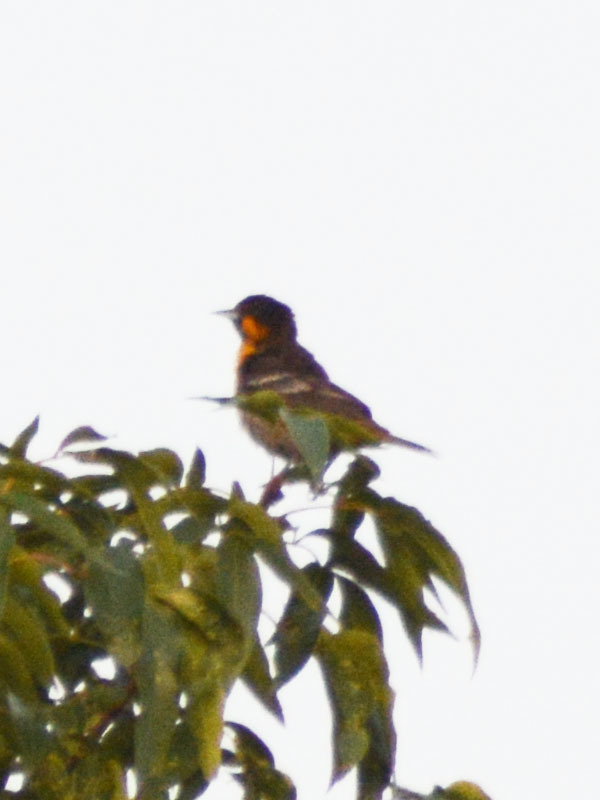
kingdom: Animalia
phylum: Chordata
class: Aves
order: Passeriformes
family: Icteridae
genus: Icterus
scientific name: Icterus abeillei
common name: Black-backed oriole
